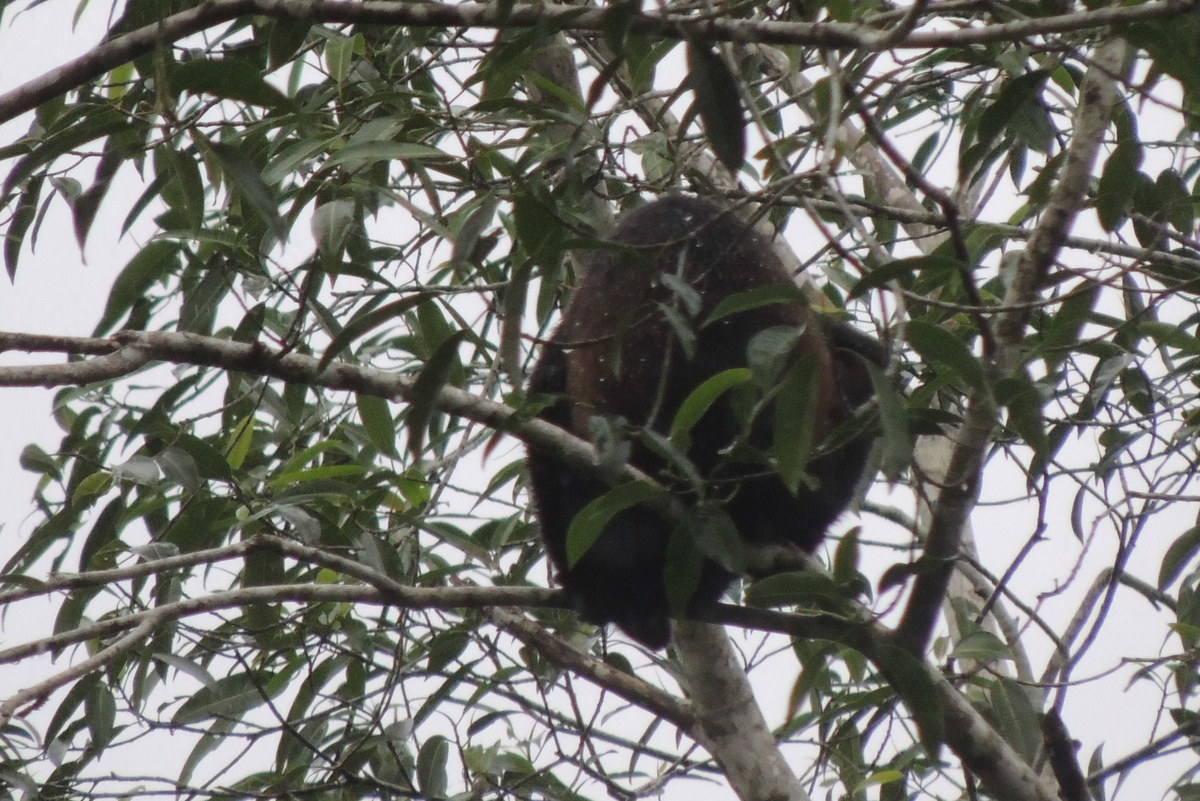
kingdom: Animalia
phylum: Chordata
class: Mammalia
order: Primates
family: Atelidae
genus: Alouatta
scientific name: Alouatta palliata
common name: Mantled howler
